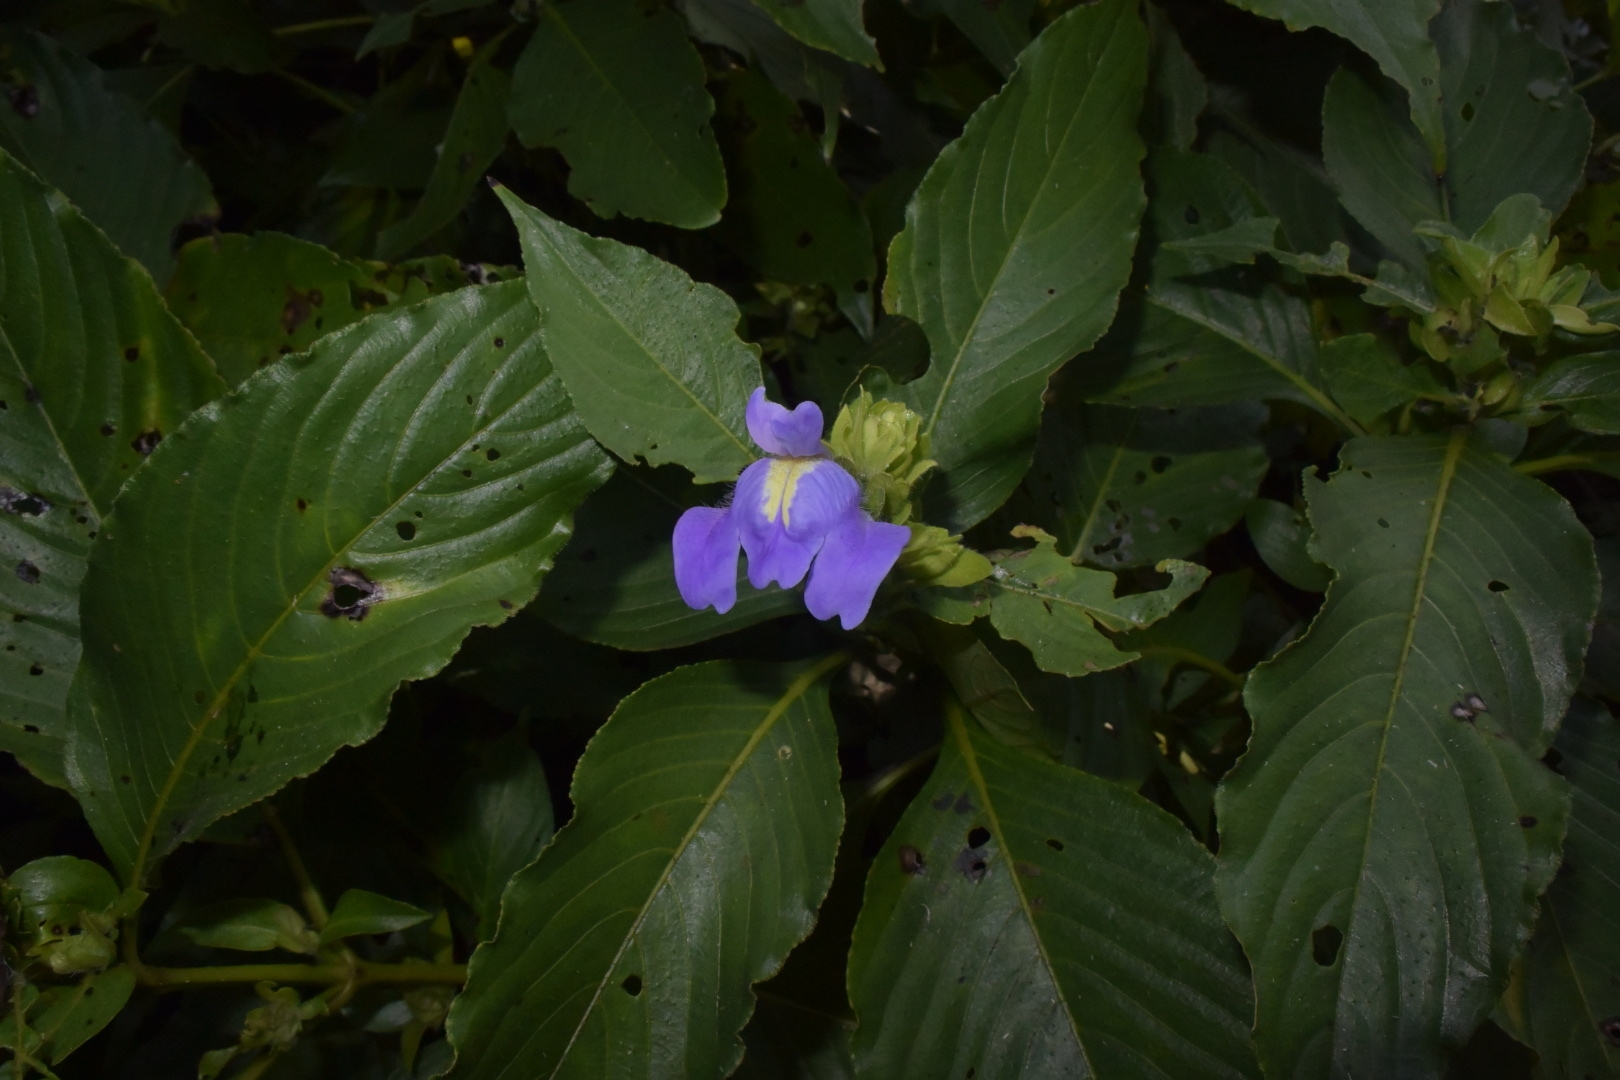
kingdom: Plantae
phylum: Tracheophyta
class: Magnoliopsida
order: Lamiales
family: Acanthaceae
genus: Calacanthus
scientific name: Calacanthus grandiflorus
